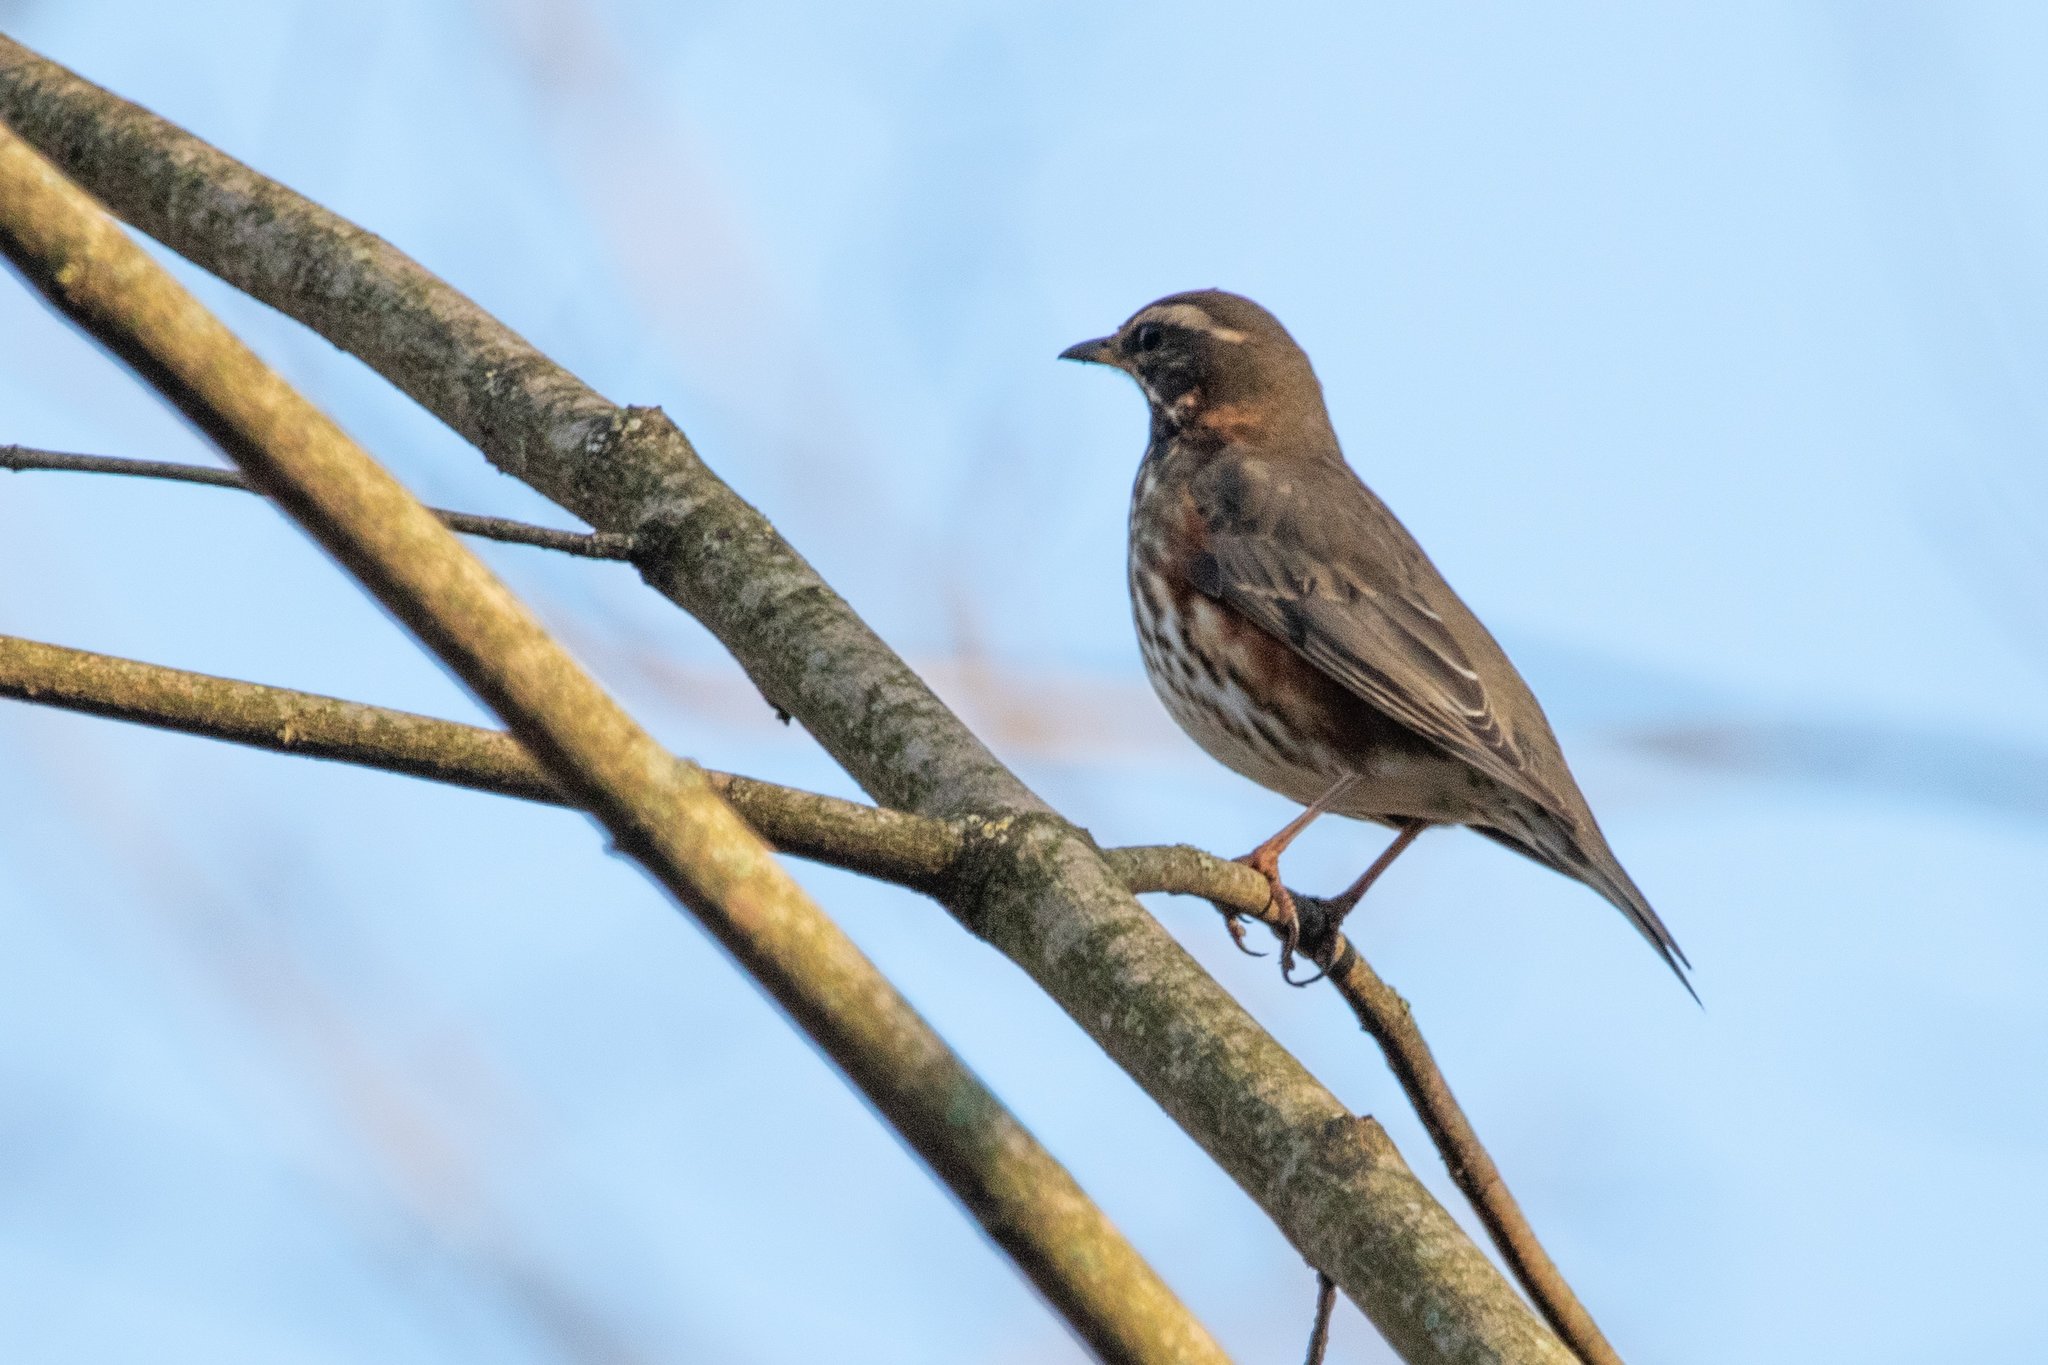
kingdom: Animalia
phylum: Chordata
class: Aves
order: Passeriformes
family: Turdidae
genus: Turdus
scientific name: Turdus iliacus
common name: Redwing
